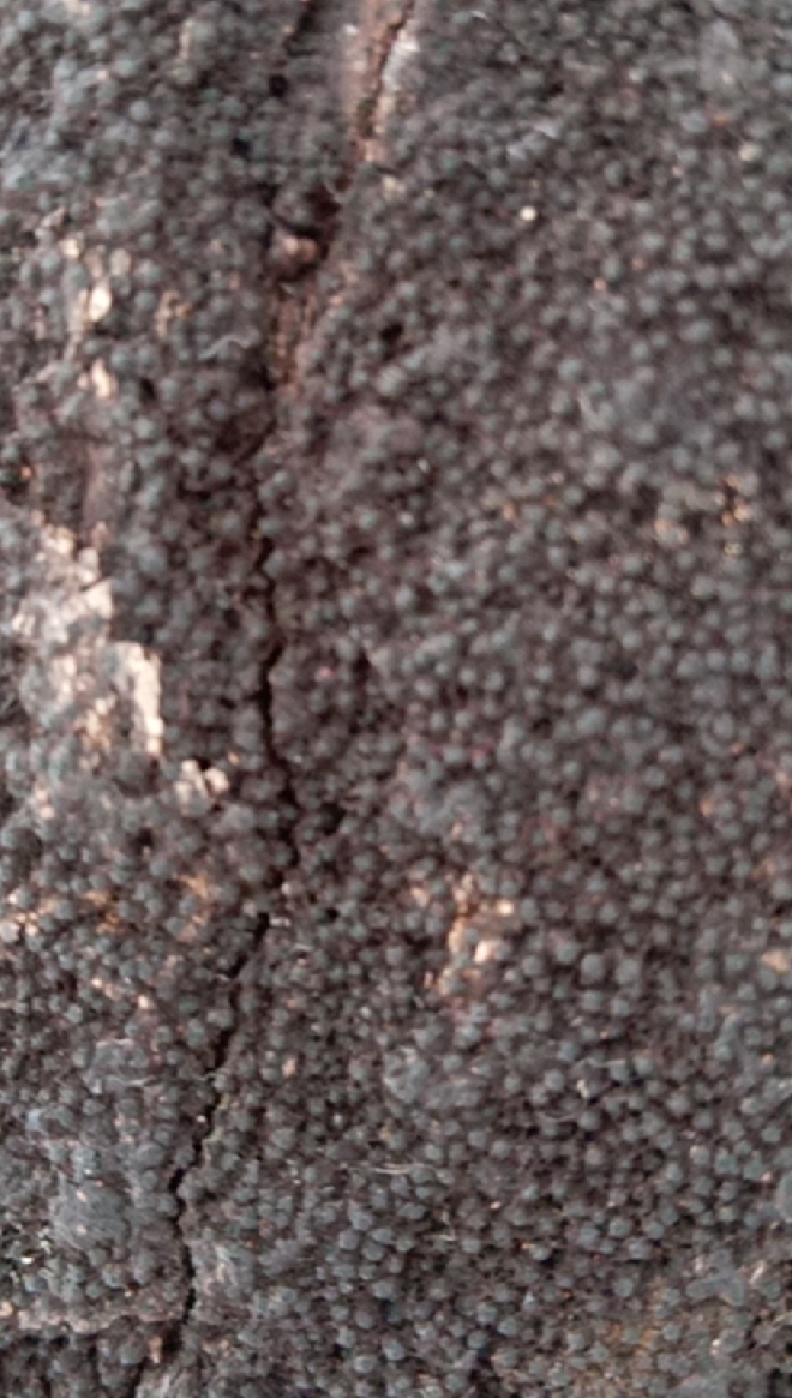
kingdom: Fungi
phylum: Ascomycota
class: Sordariomycetes
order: Xylariales
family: Diatrypaceae
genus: Eutypa
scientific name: Eutypa spinosa
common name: Spiral tarcrust
